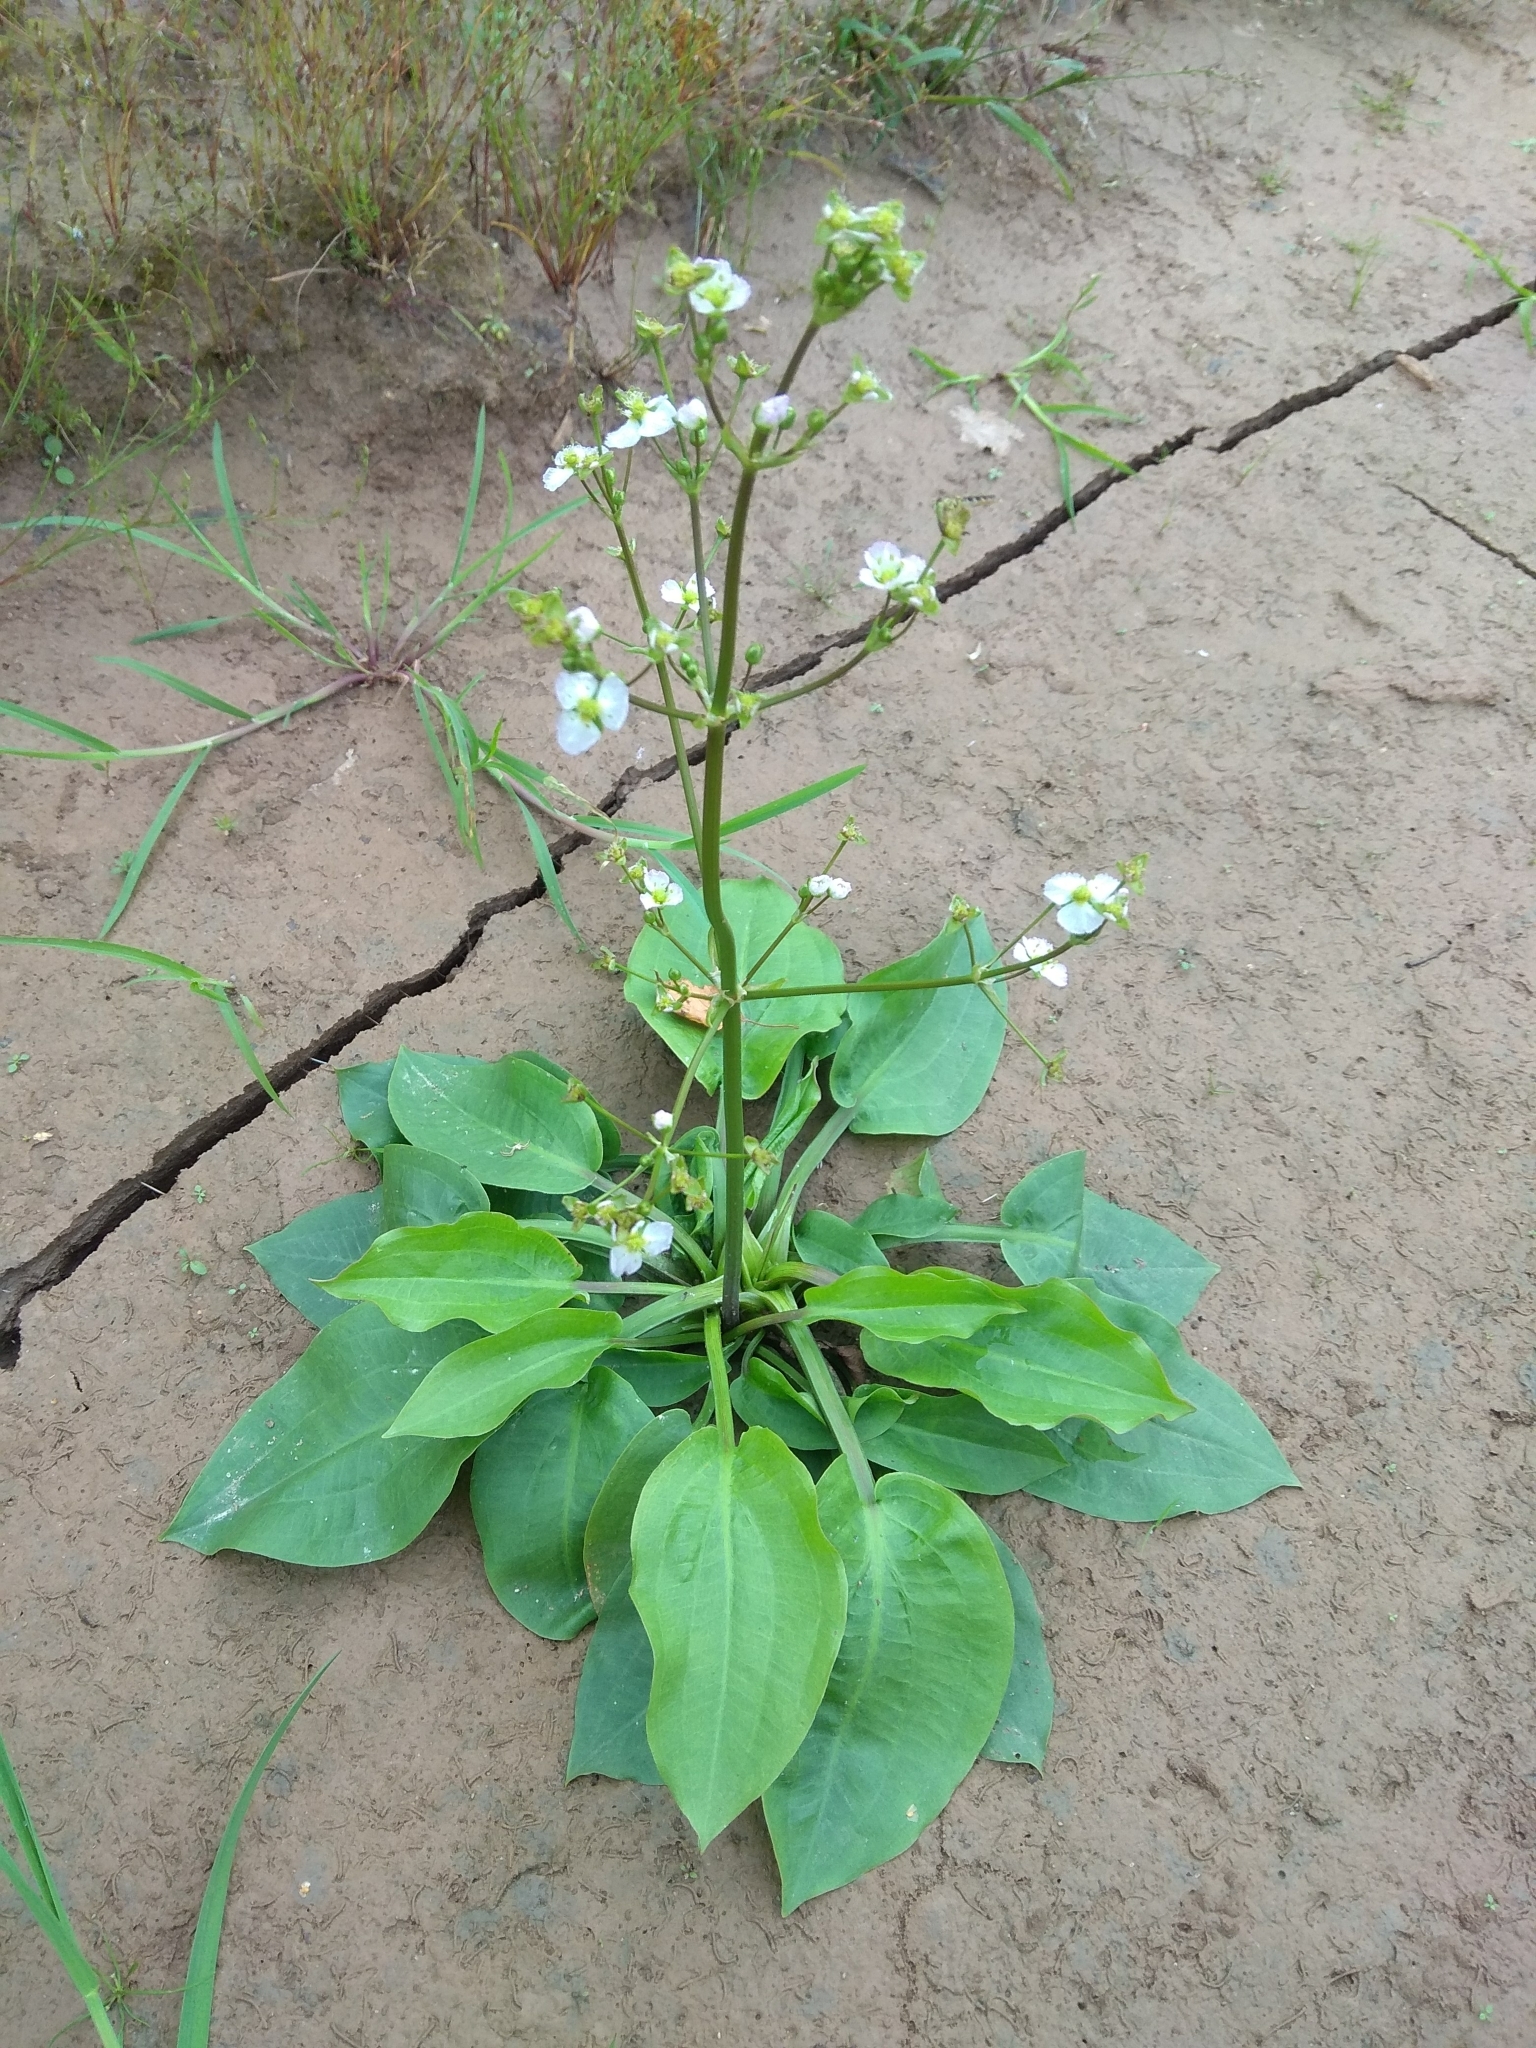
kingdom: Plantae
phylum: Tracheophyta
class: Liliopsida
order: Alismatales
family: Alismataceae
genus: Alisma
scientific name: Alisma plantago-aquatica
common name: Water-plantain
